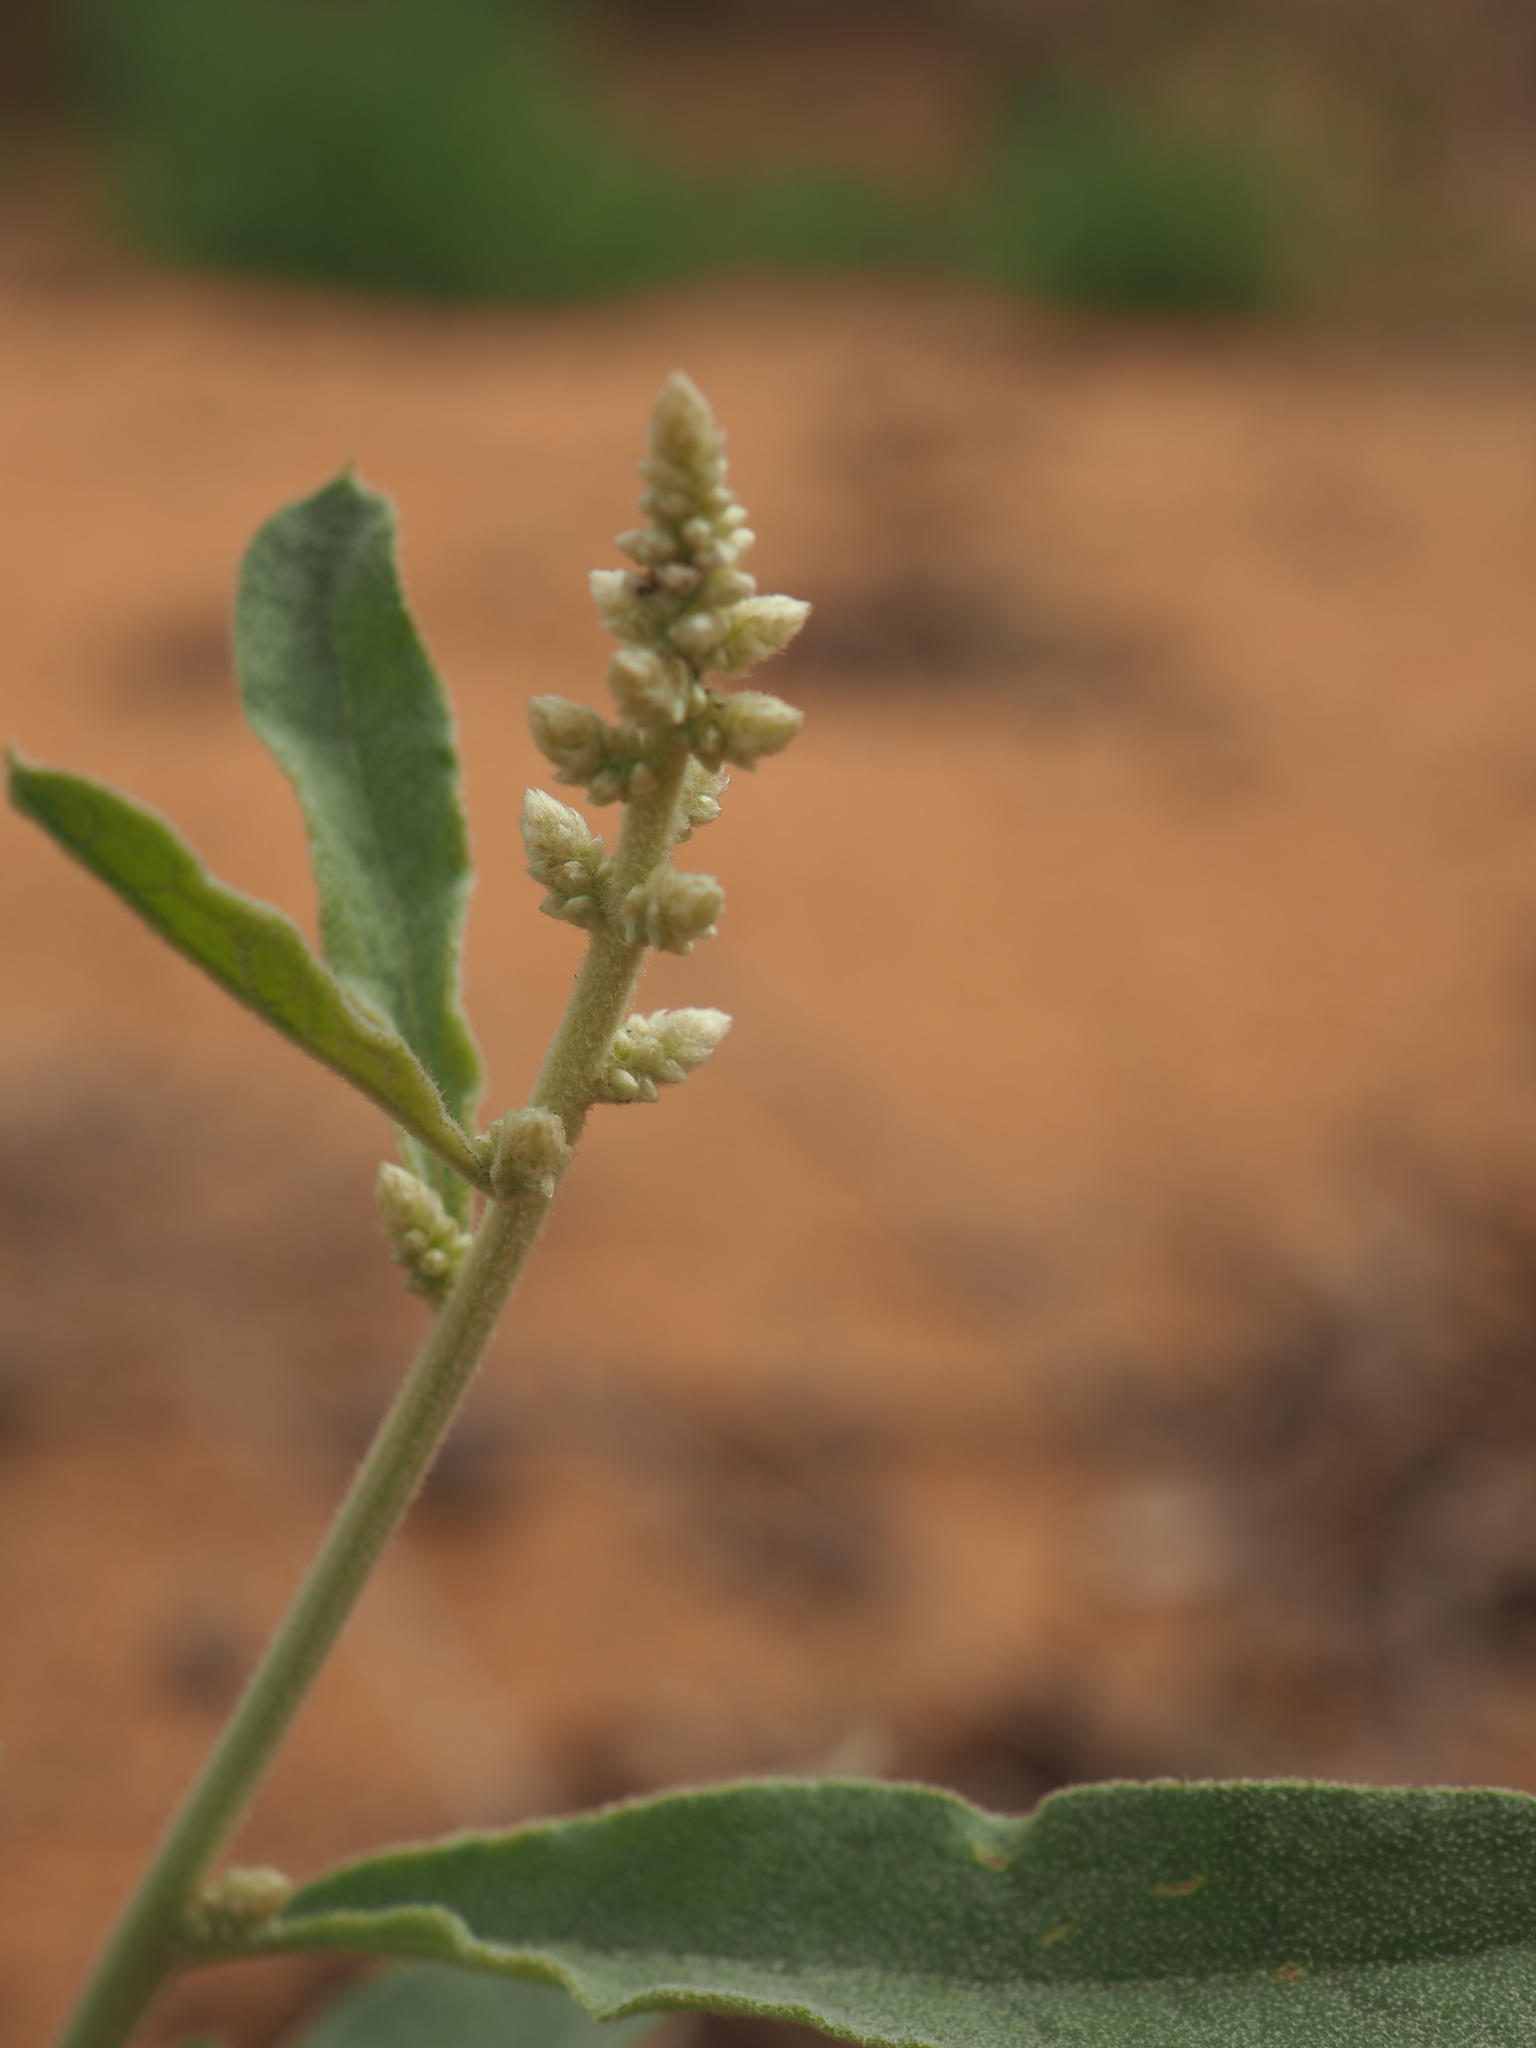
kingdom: Plantae
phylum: Tracheophyta
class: Magnoliopsida
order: Caryophyllales
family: Amaranthaceae
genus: Aerva
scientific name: Aerva javanica
